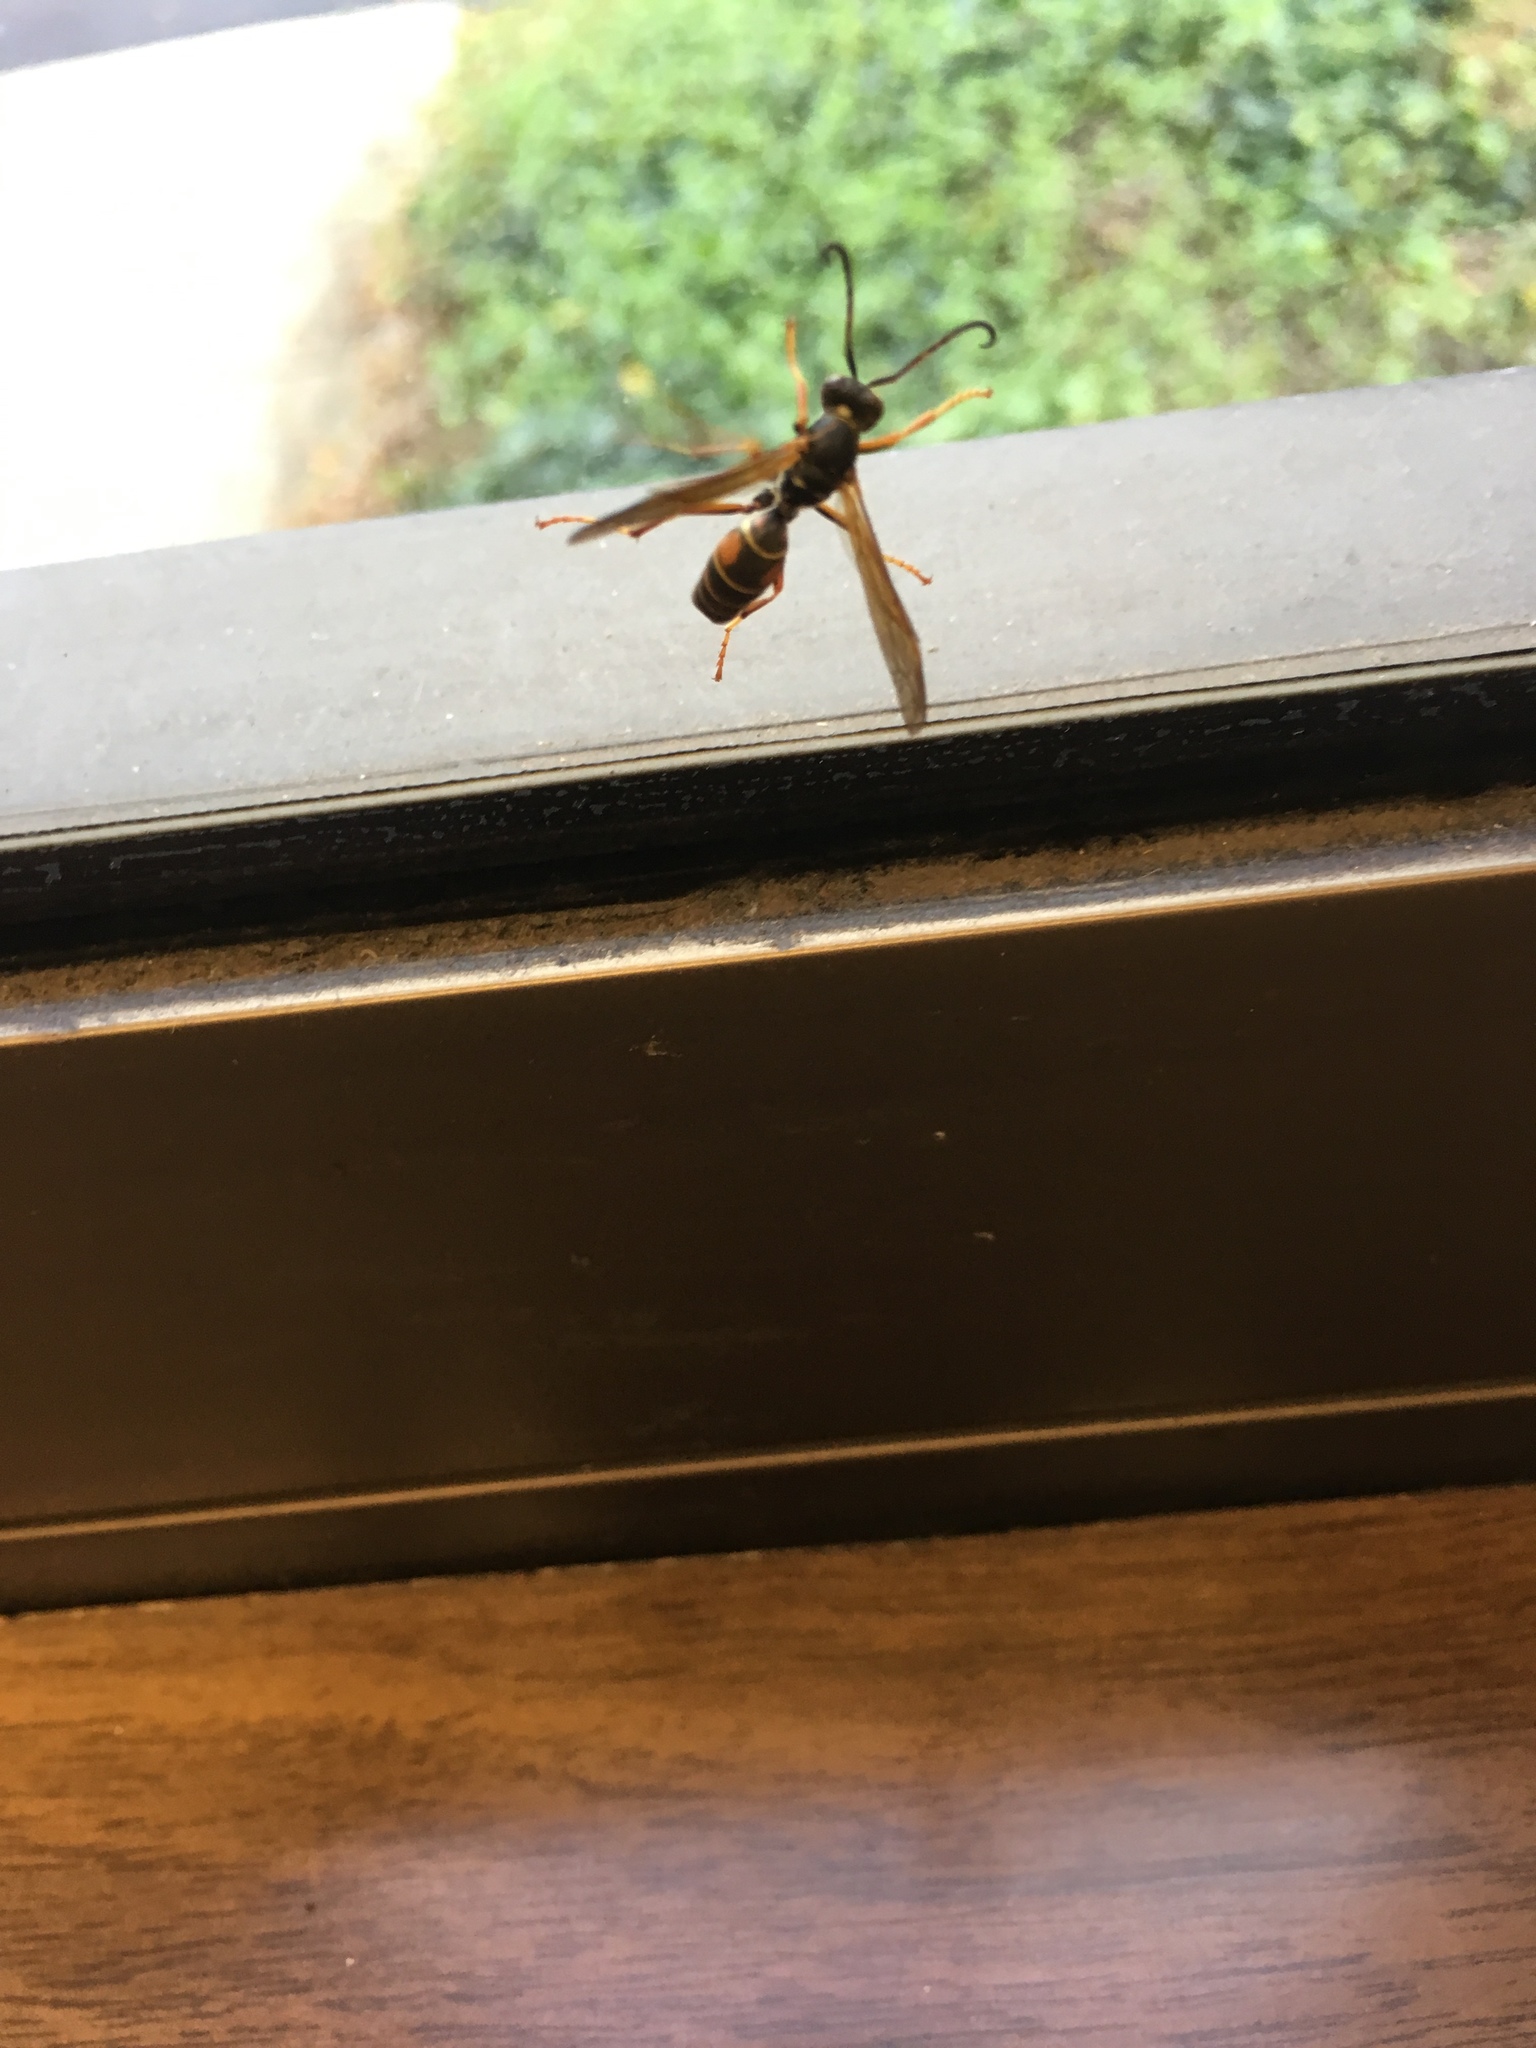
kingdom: Animalia
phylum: Arthropoda
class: Insecta
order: Hymenoptera
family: Eumenidae
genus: Polistes
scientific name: Polistes fuscatus
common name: Dark paper wasp
